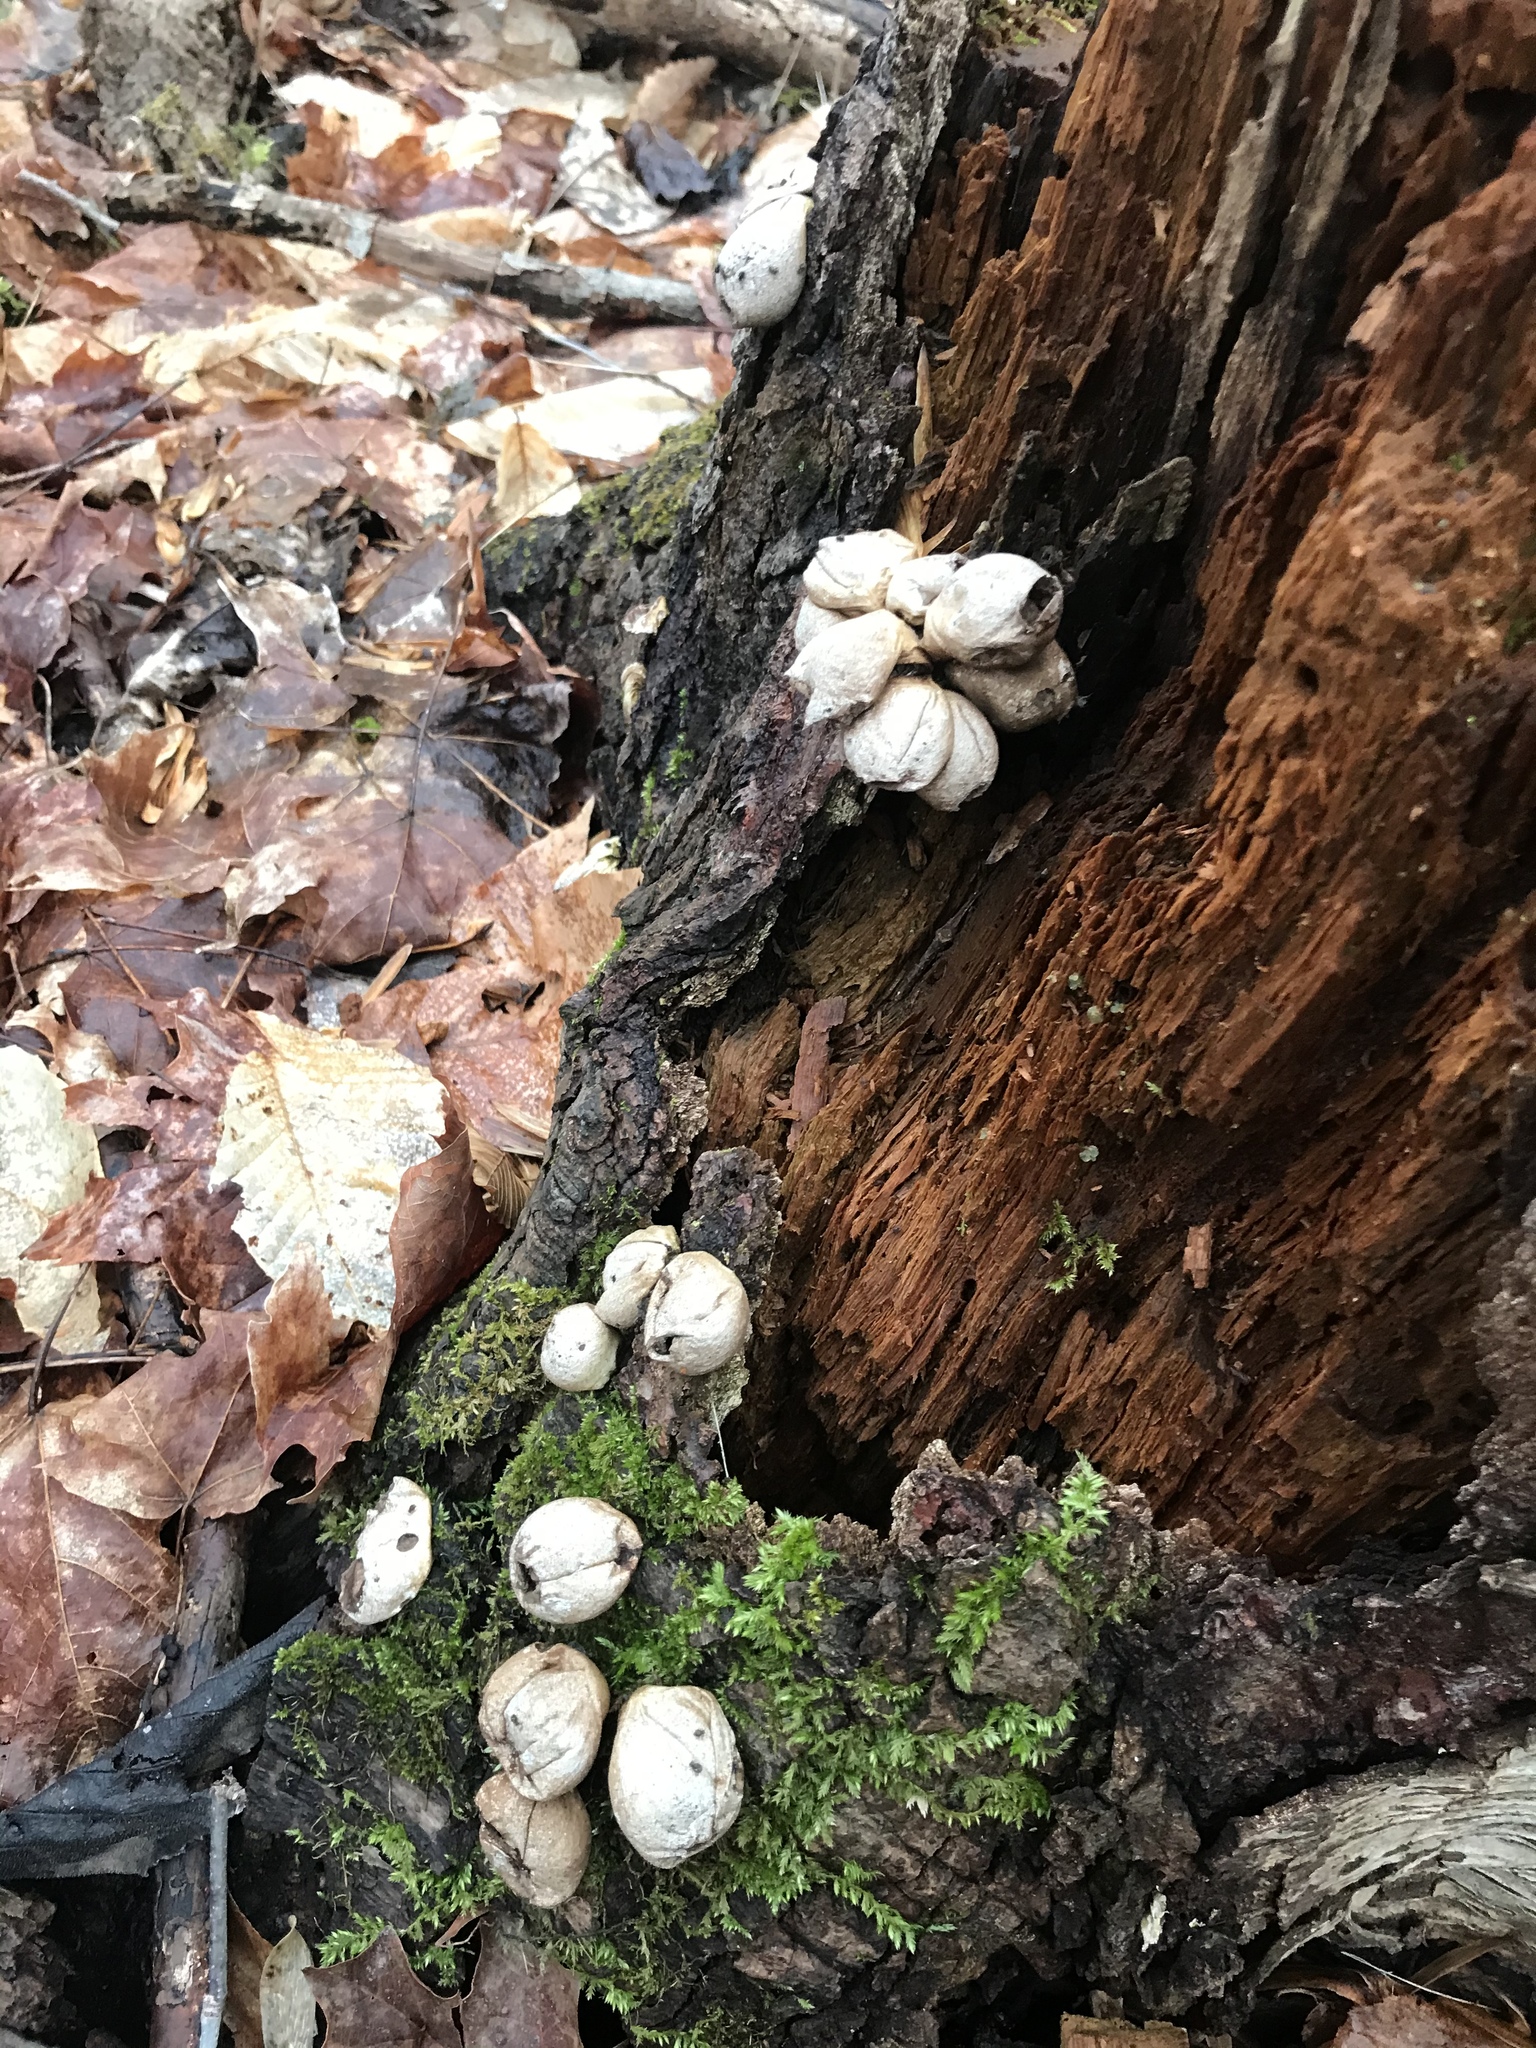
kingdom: Fungi
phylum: Basidiomycota
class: Agaricomycetes
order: Agaricales
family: Lycoperdaceae
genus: Apioperdon
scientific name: Apioperdon pyriforme
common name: Pear-shaped puffball
